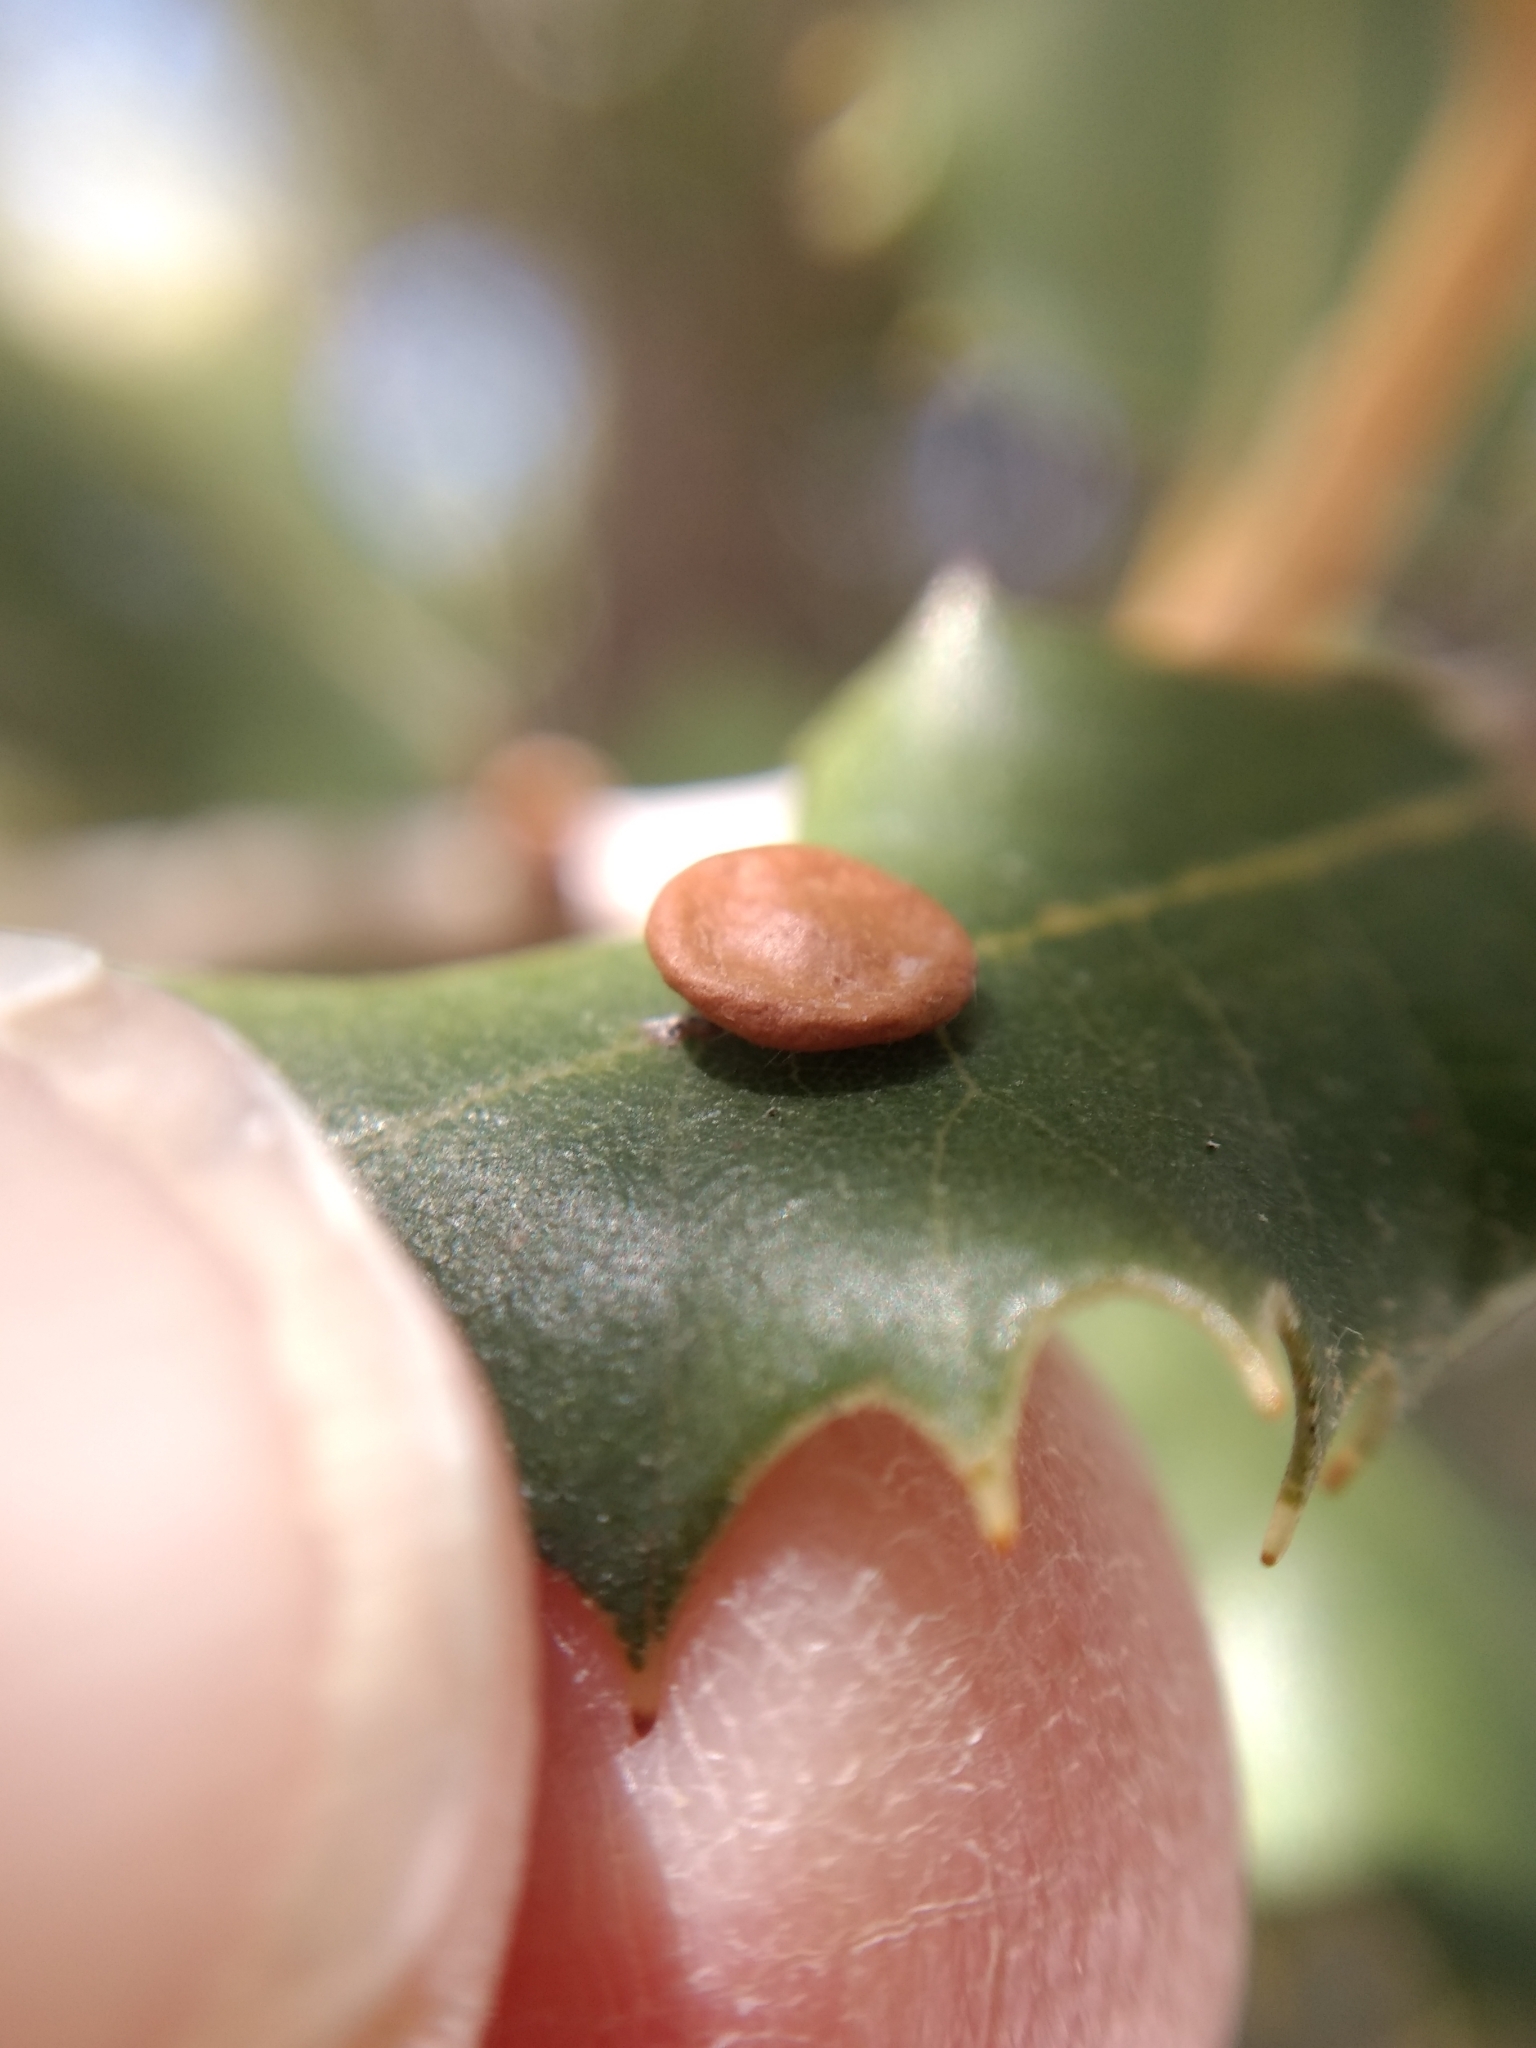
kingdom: Animalia
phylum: Arthropoda
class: Insecta
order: Hymenoptera
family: Cynipidae
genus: Andricus
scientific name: Andricus
